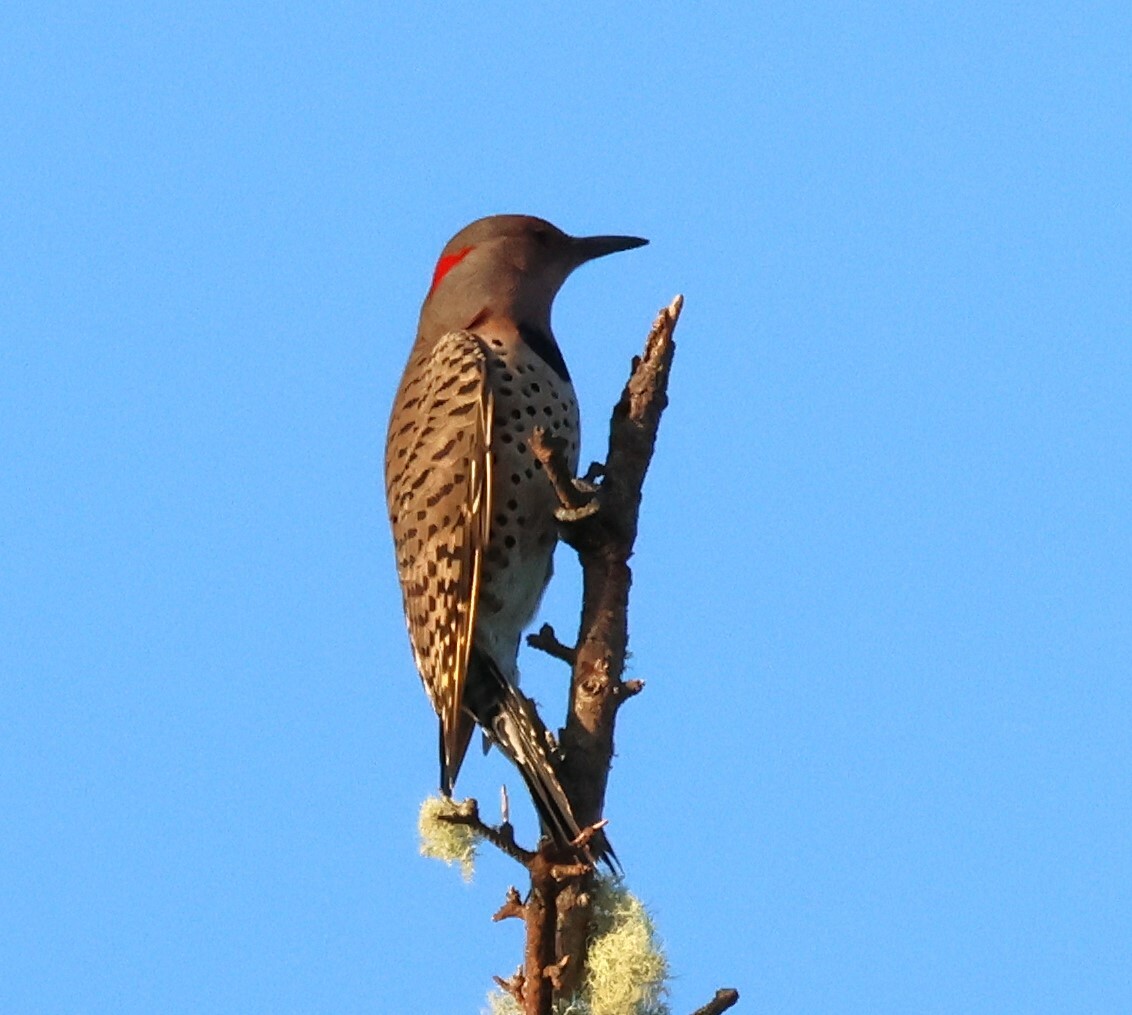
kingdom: Animalia
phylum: Chordata
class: Aves
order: Piciformes
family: Picidae
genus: Colaptes
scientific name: Colaptes auratus
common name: Northern flicker
